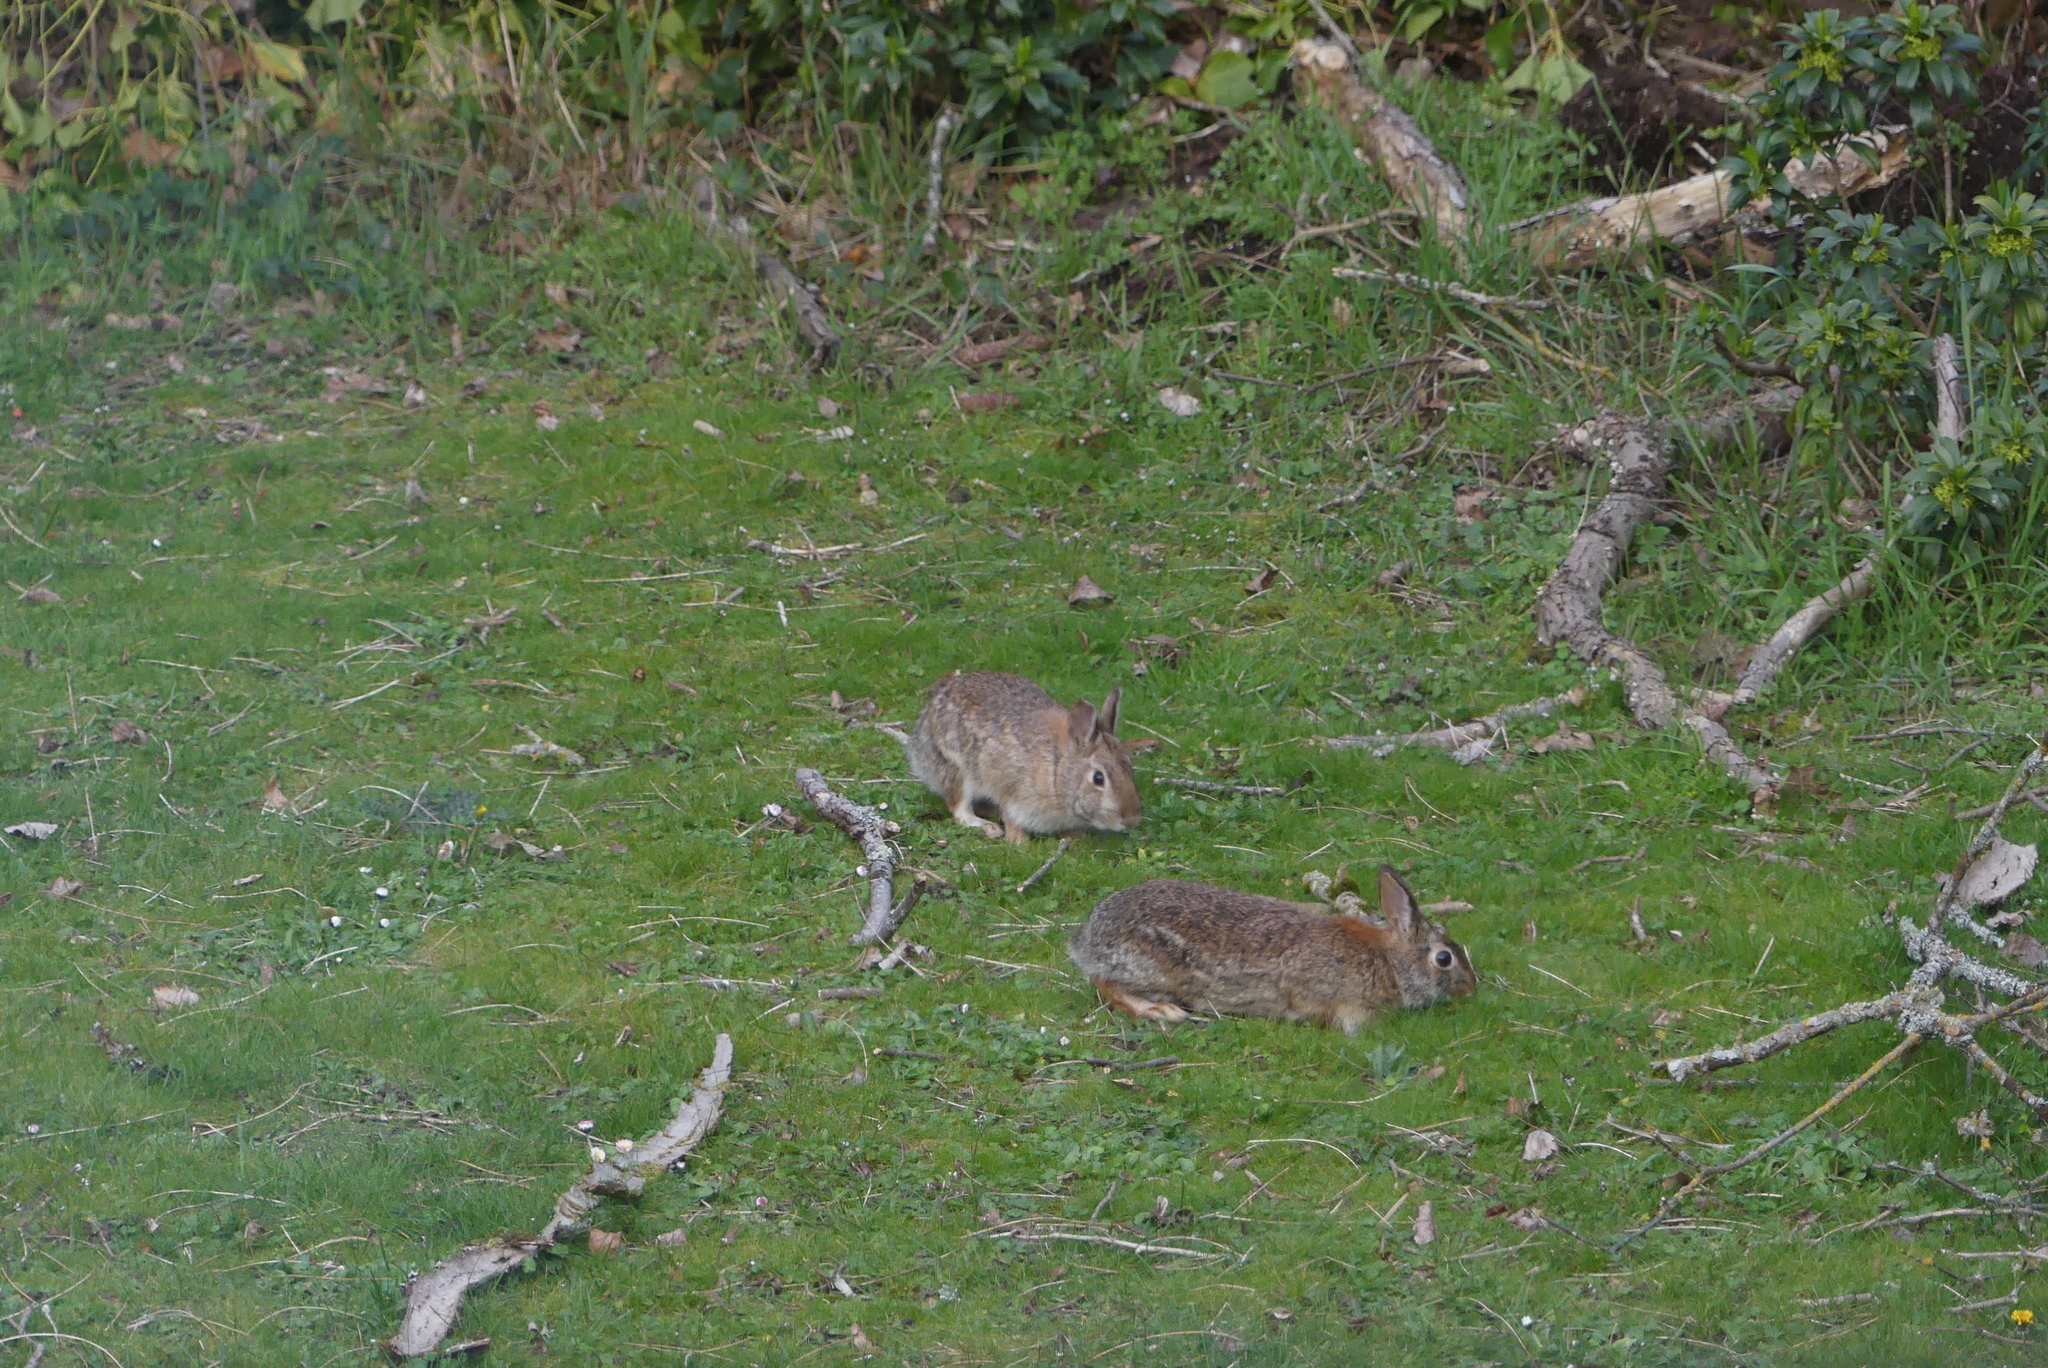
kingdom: Animalia
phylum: Chordata
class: Mammalia
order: Lagomorpha
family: Leporidae
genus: Sylvilagus
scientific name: Sylvilagus floridanus
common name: Eastern cottontail
